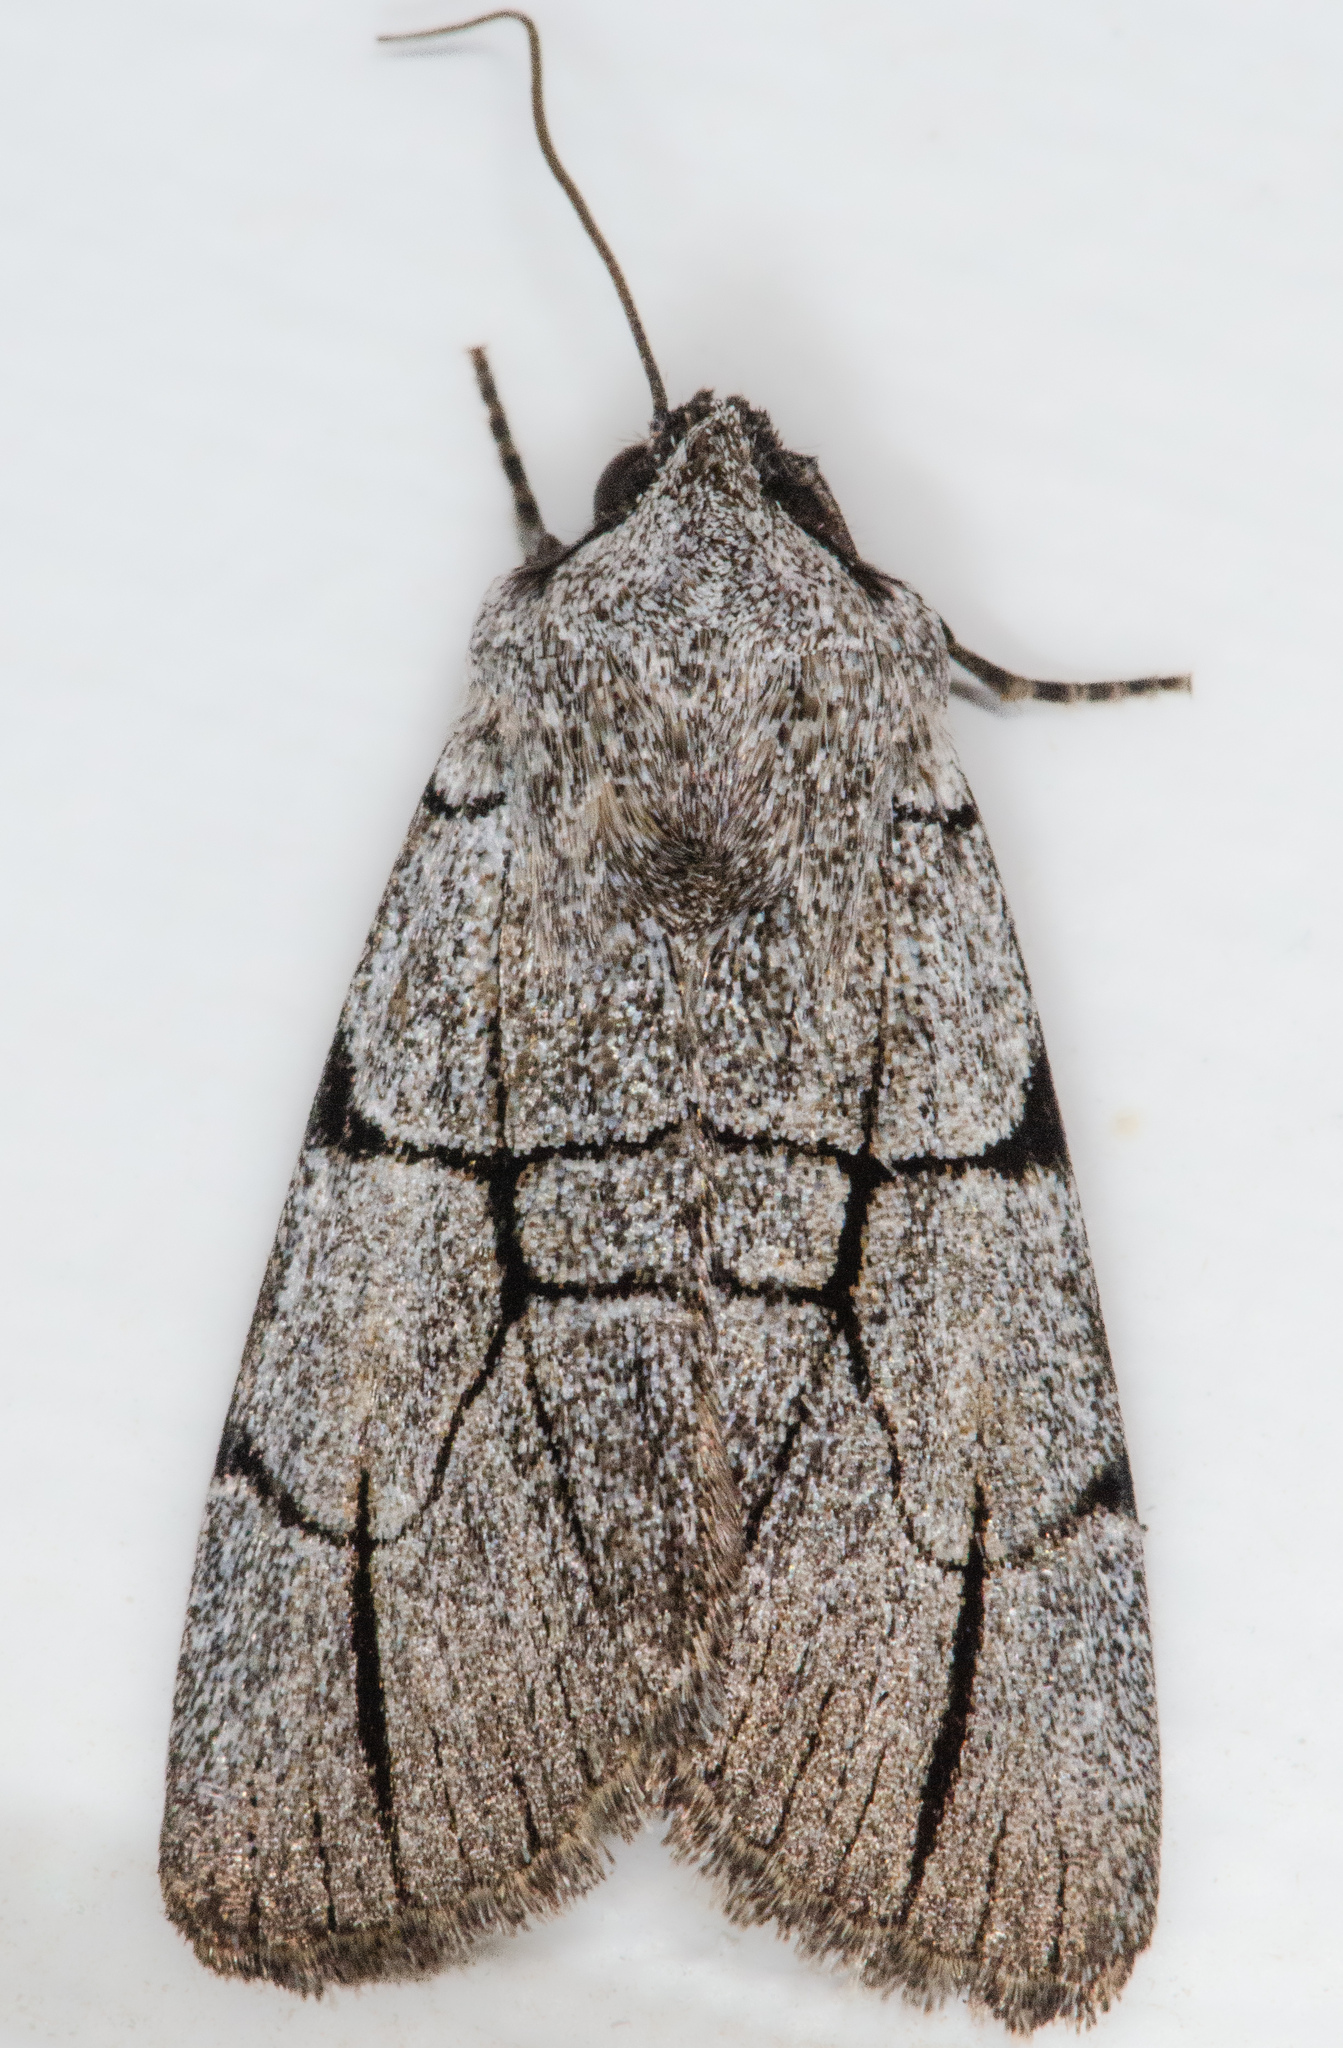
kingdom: Animalia
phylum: Arthropoda
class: Insecta
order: Lepidoptera
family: Noctuidae
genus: Sympistis
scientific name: Sympistis figurata
